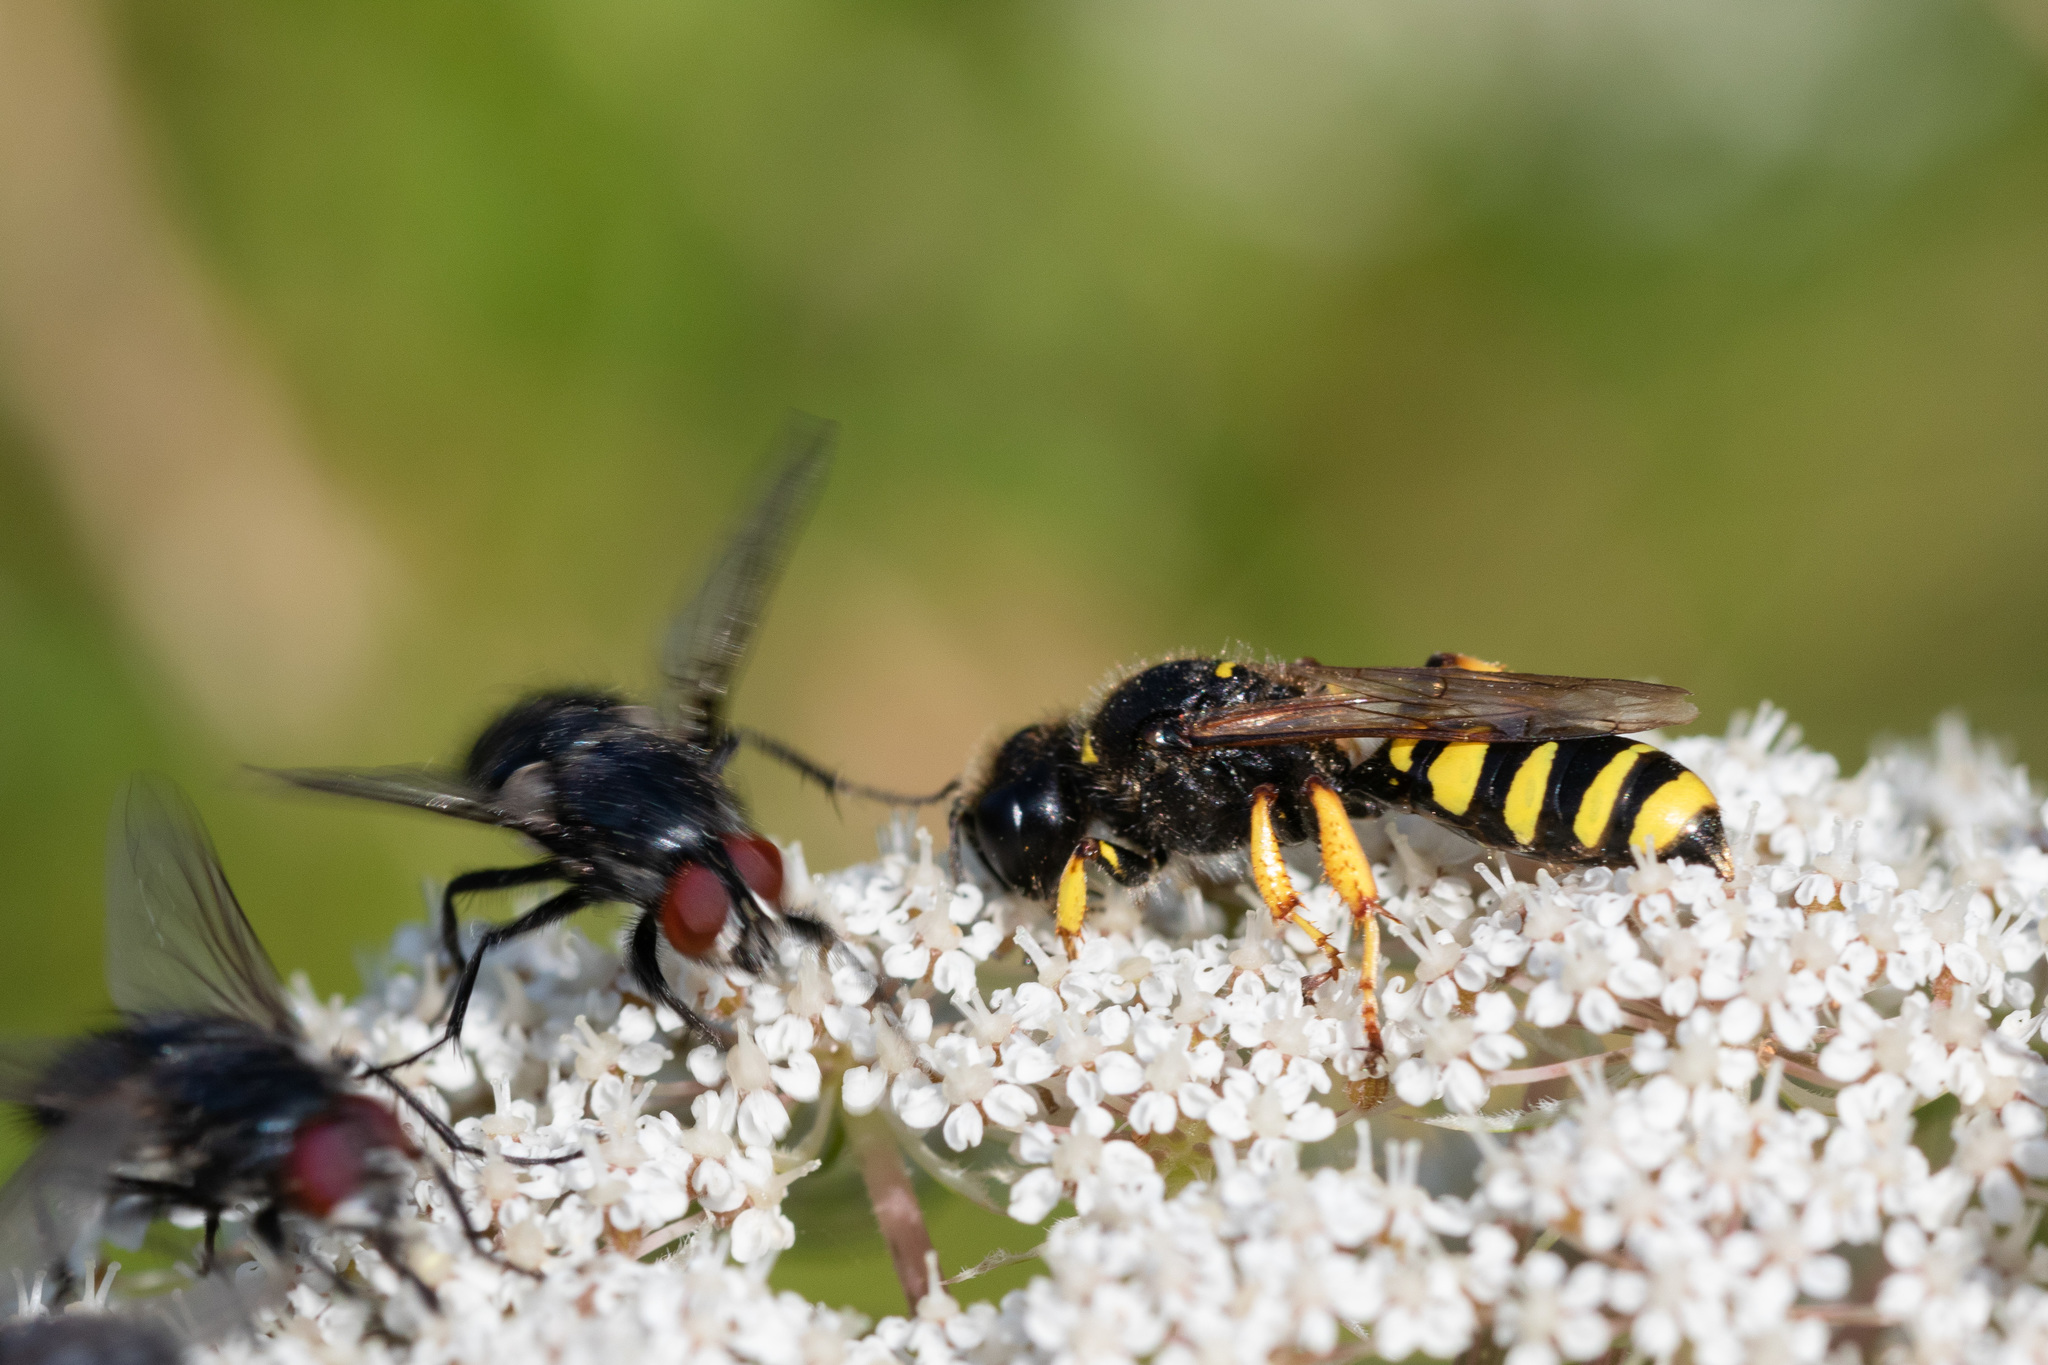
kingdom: Animalia
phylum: Arthropoda
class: Insecta
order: Hymenoptera
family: Crabronidae
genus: Crabro
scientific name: Crabro cribrarius
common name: Slender bodied digger wasp
